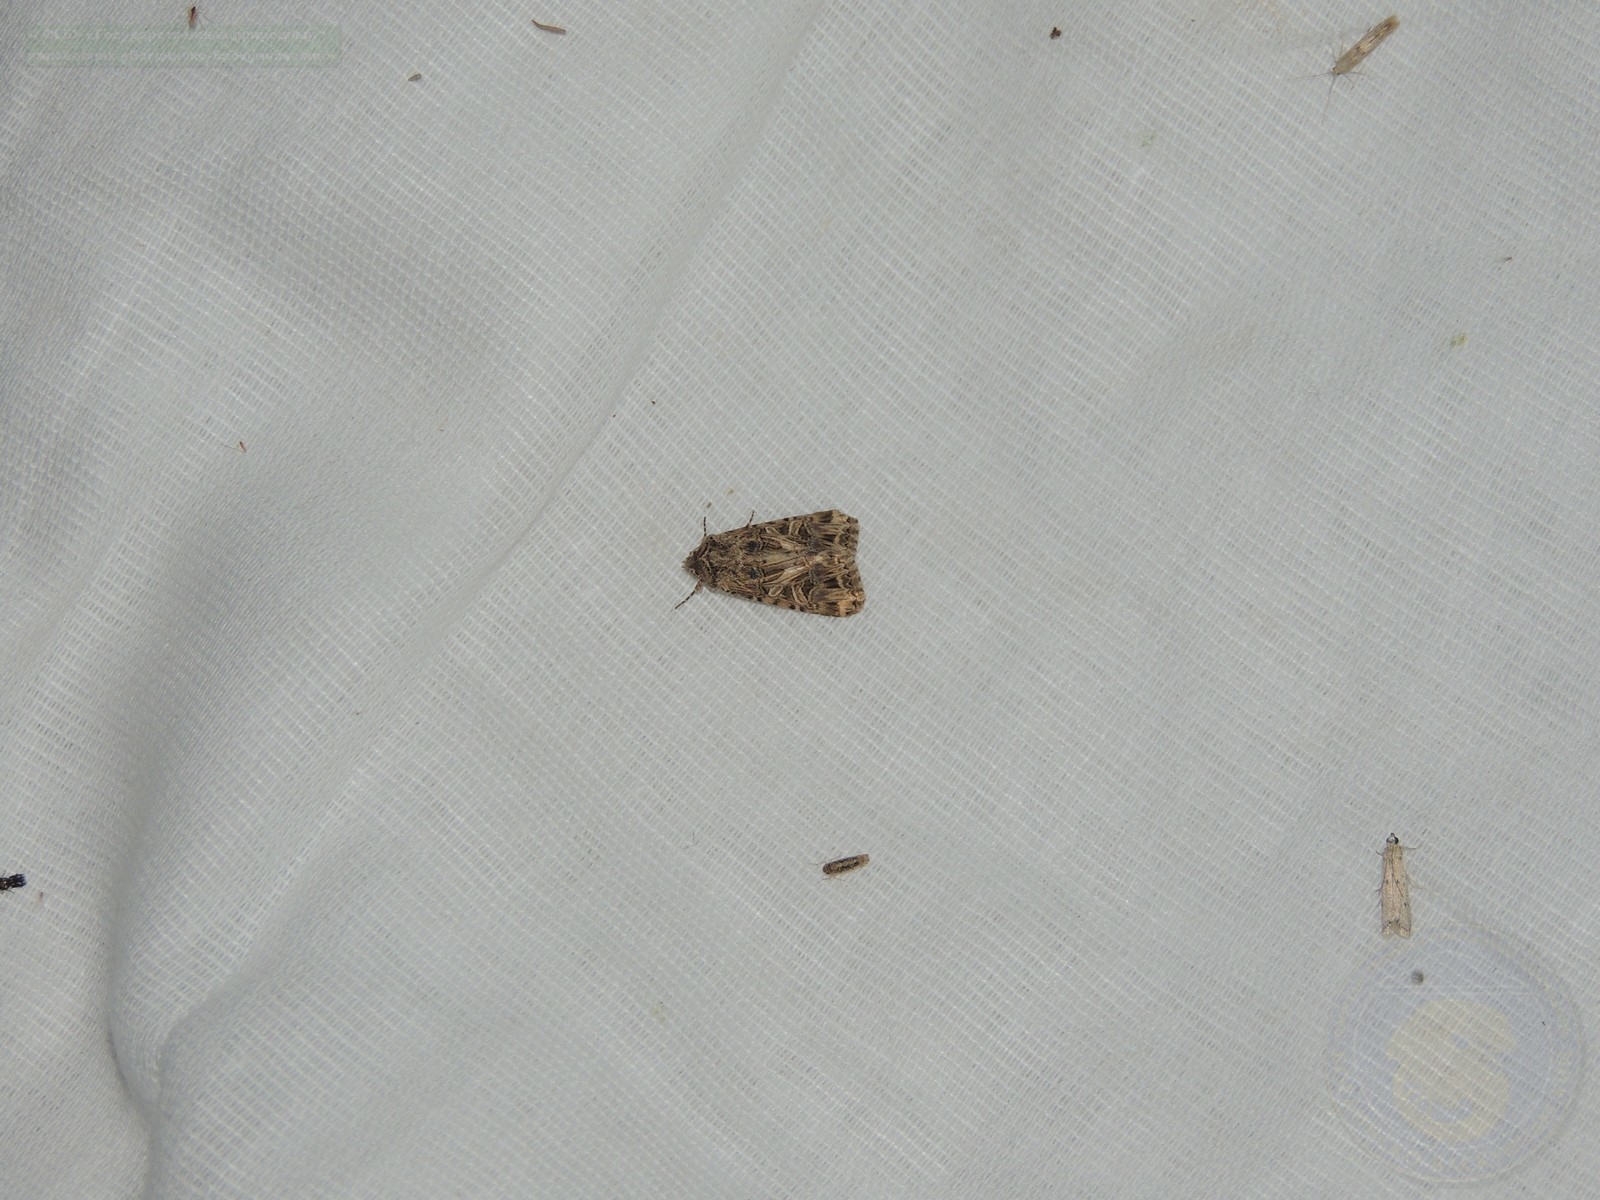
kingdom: Animalia
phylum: Arthropoda
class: Insecta
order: Lepidoptera
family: Noctuidae
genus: Anarta
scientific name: Anarta dianthi
